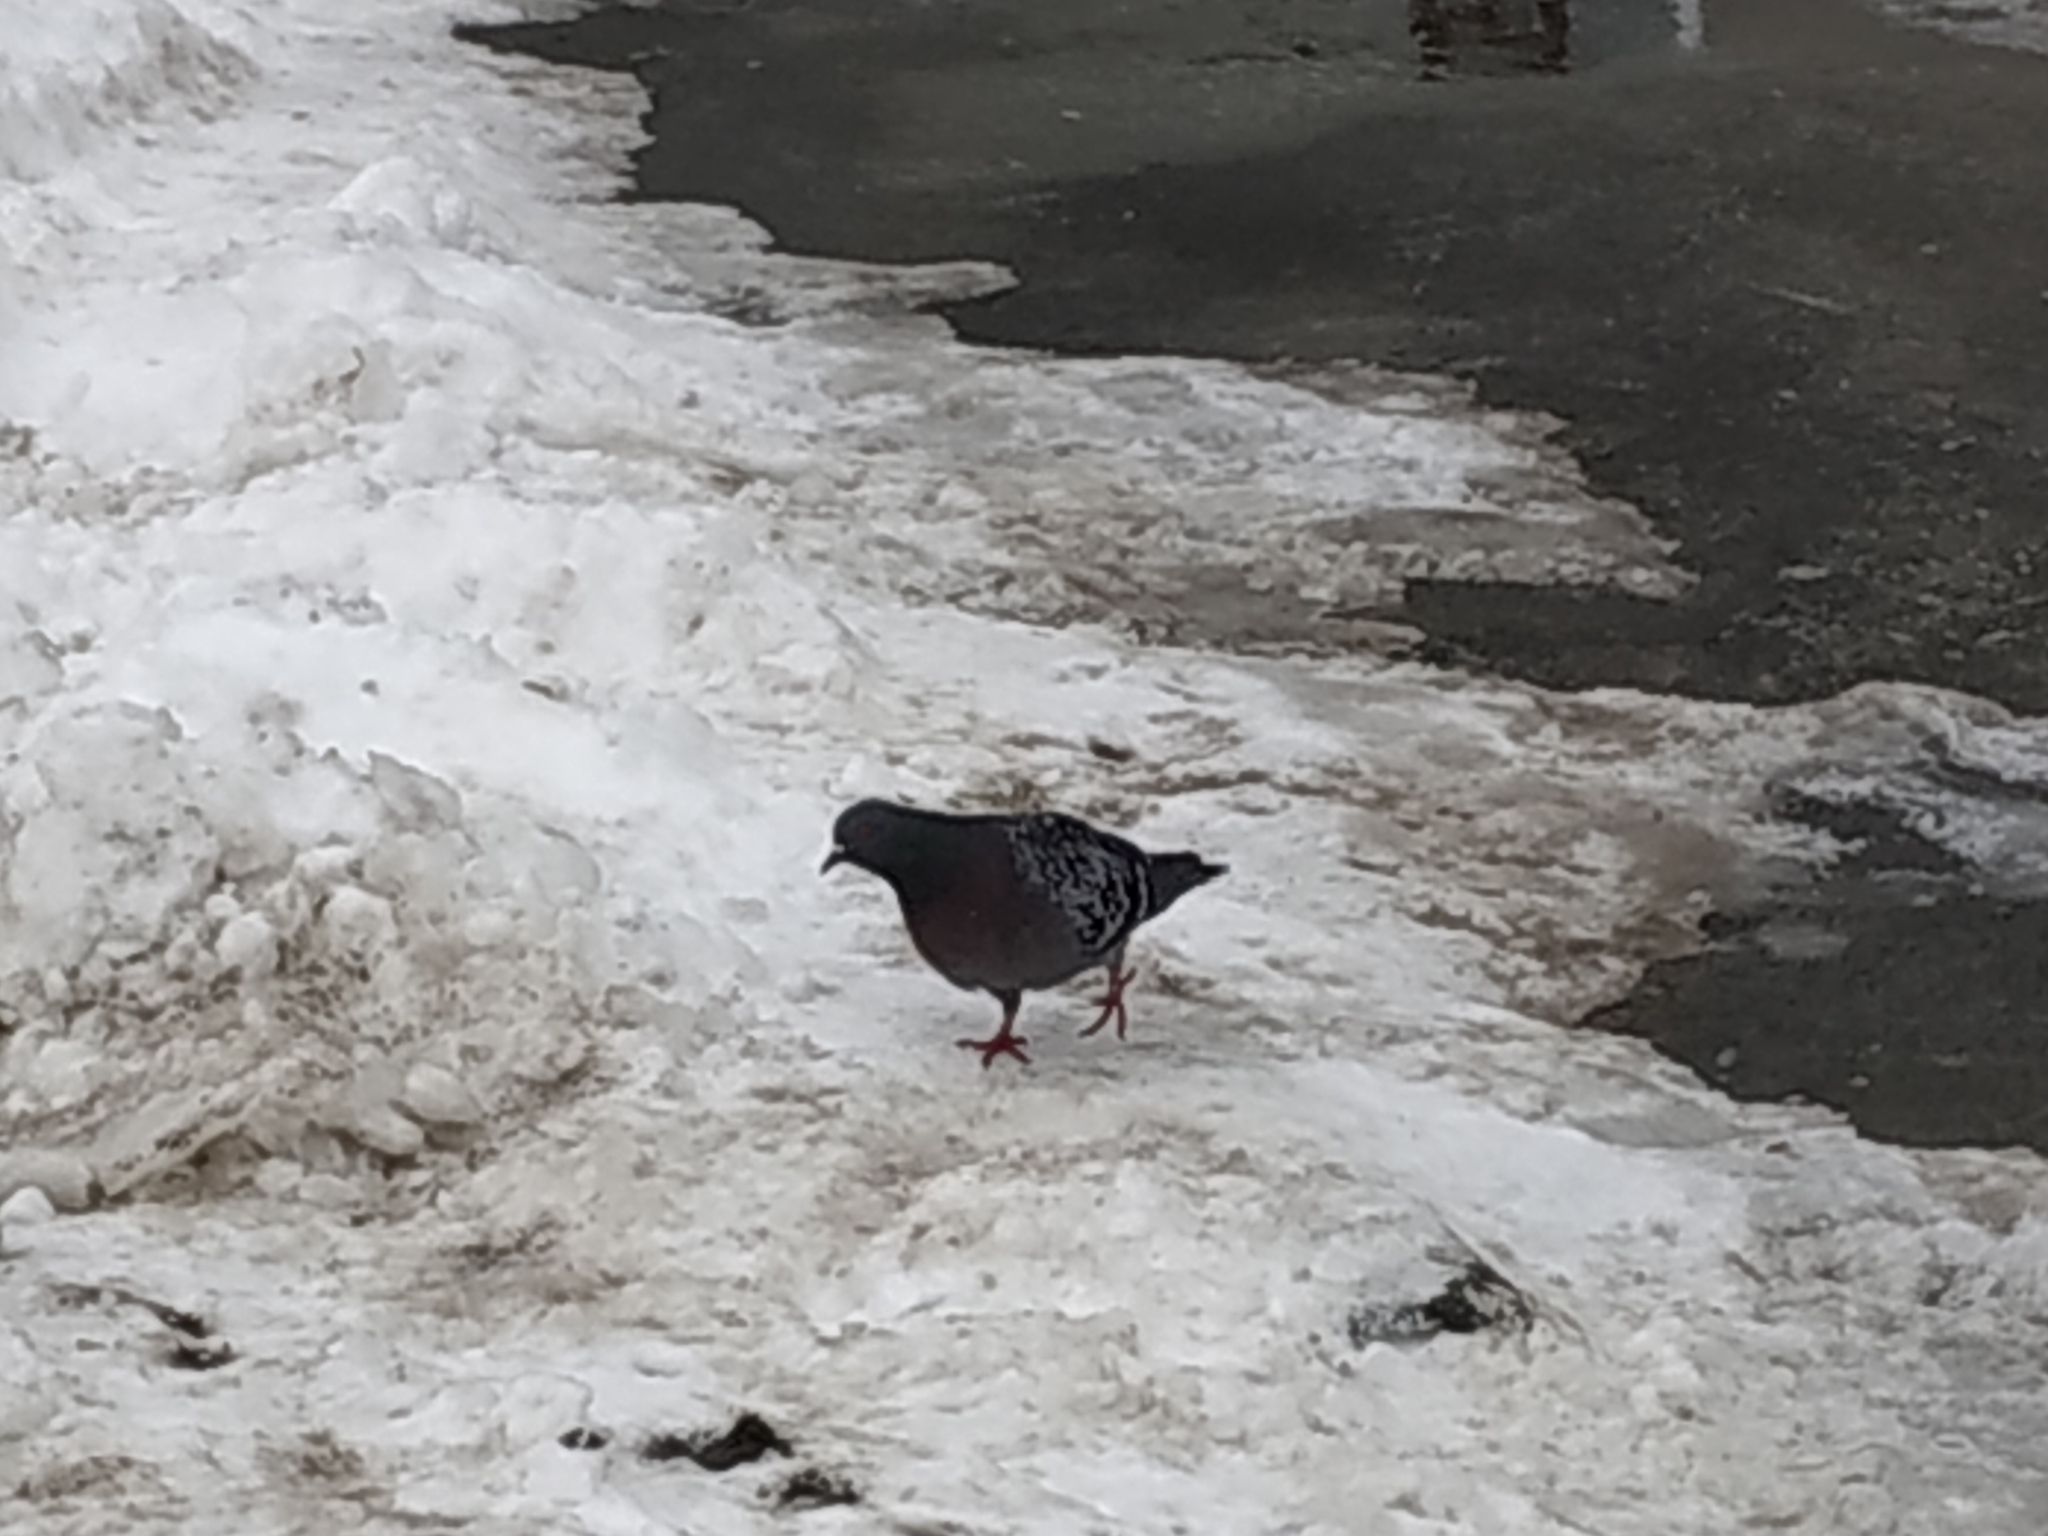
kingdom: Animalia
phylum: Chordata
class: Aves
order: Columbiformes
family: Columbidae
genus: Columba
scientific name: Columba livia
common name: Rock pigeon
